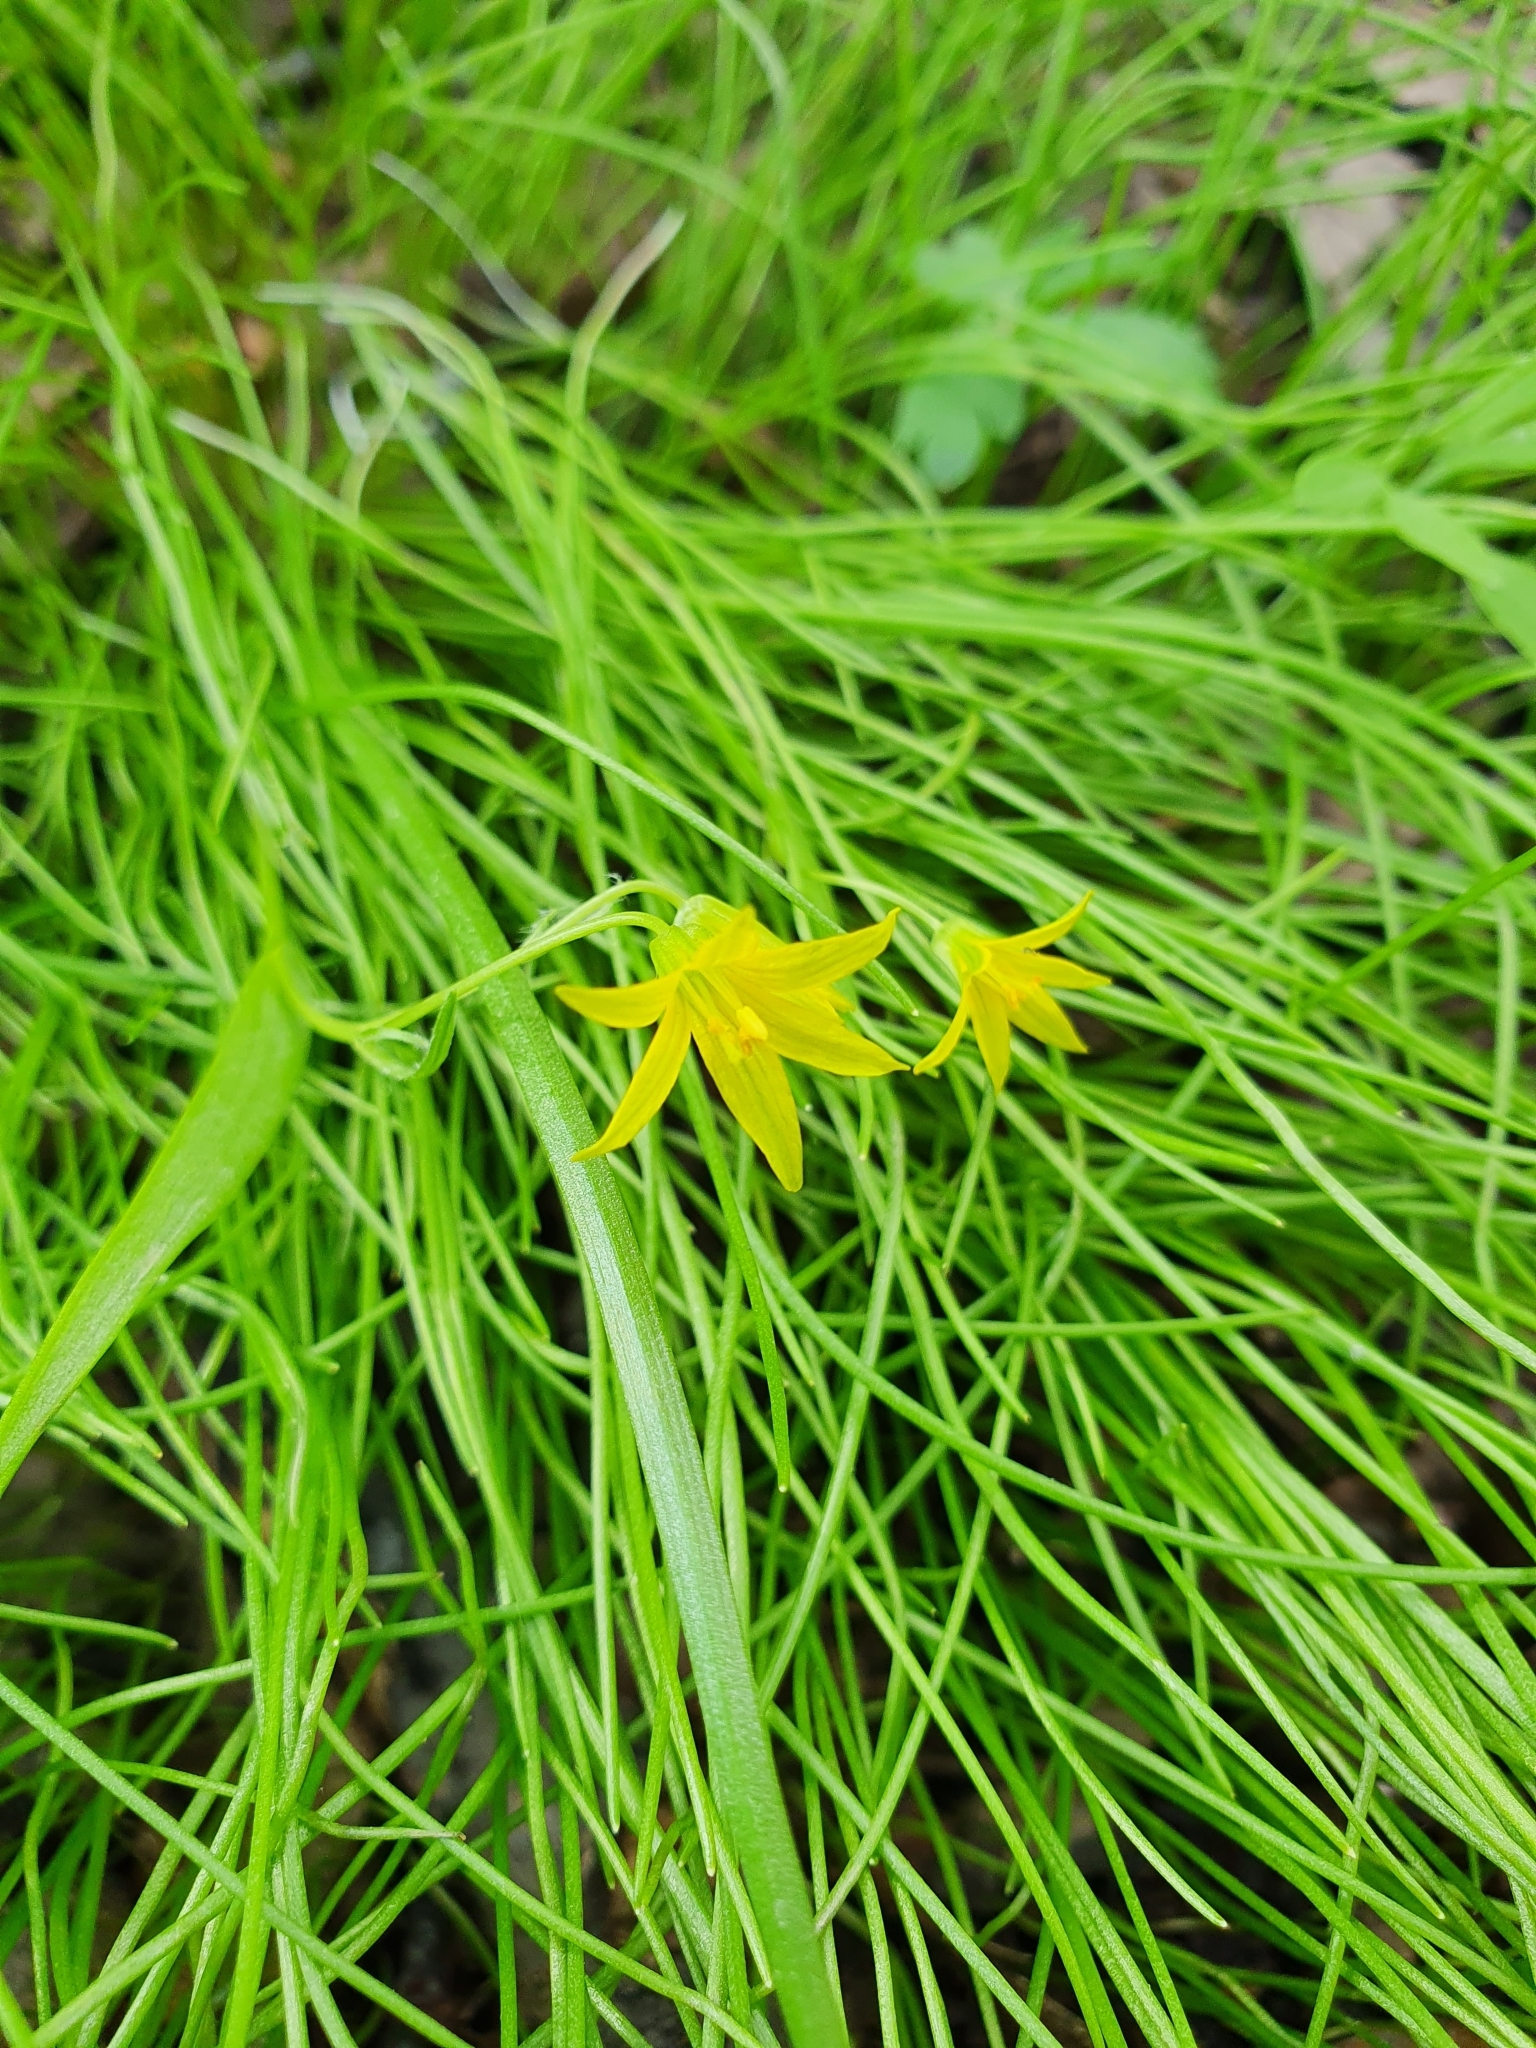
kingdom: Plantae
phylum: Tracheophyta
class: Liliopsida
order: Liliales
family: Liliaceae
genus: Gagea
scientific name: Gagea minima
